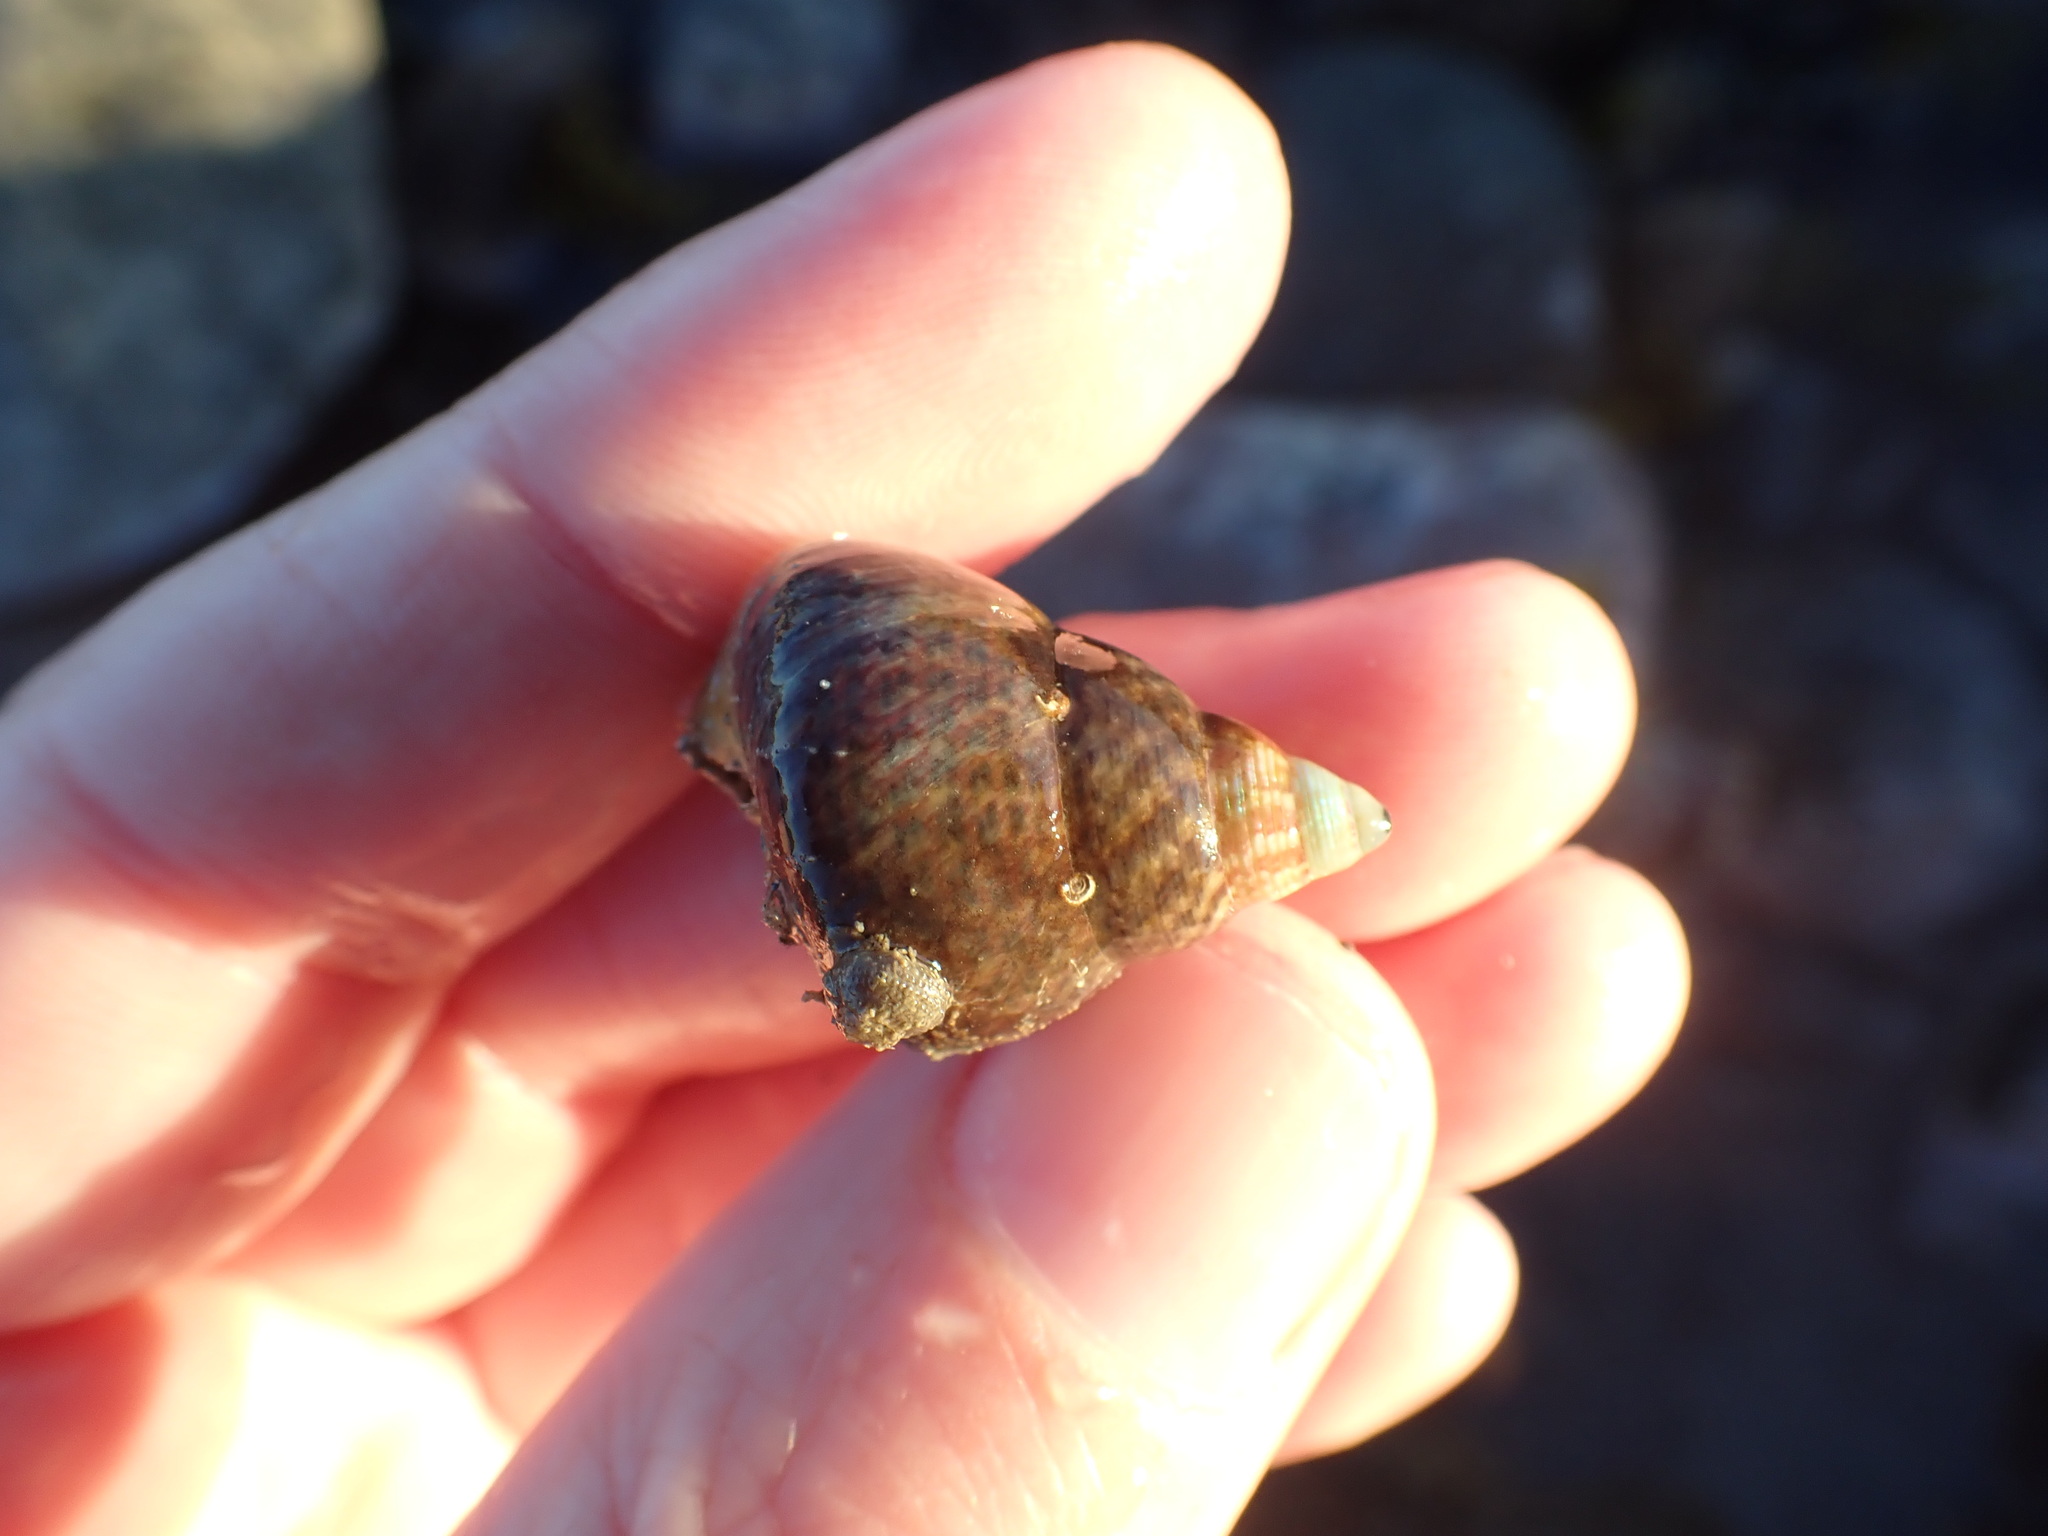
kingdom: Animalia
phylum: Mollusca
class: Gastropoda
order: Trochida
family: Trochidae
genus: Cantharidus
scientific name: Cantharidus opalus
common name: Opal jewel topsnail
